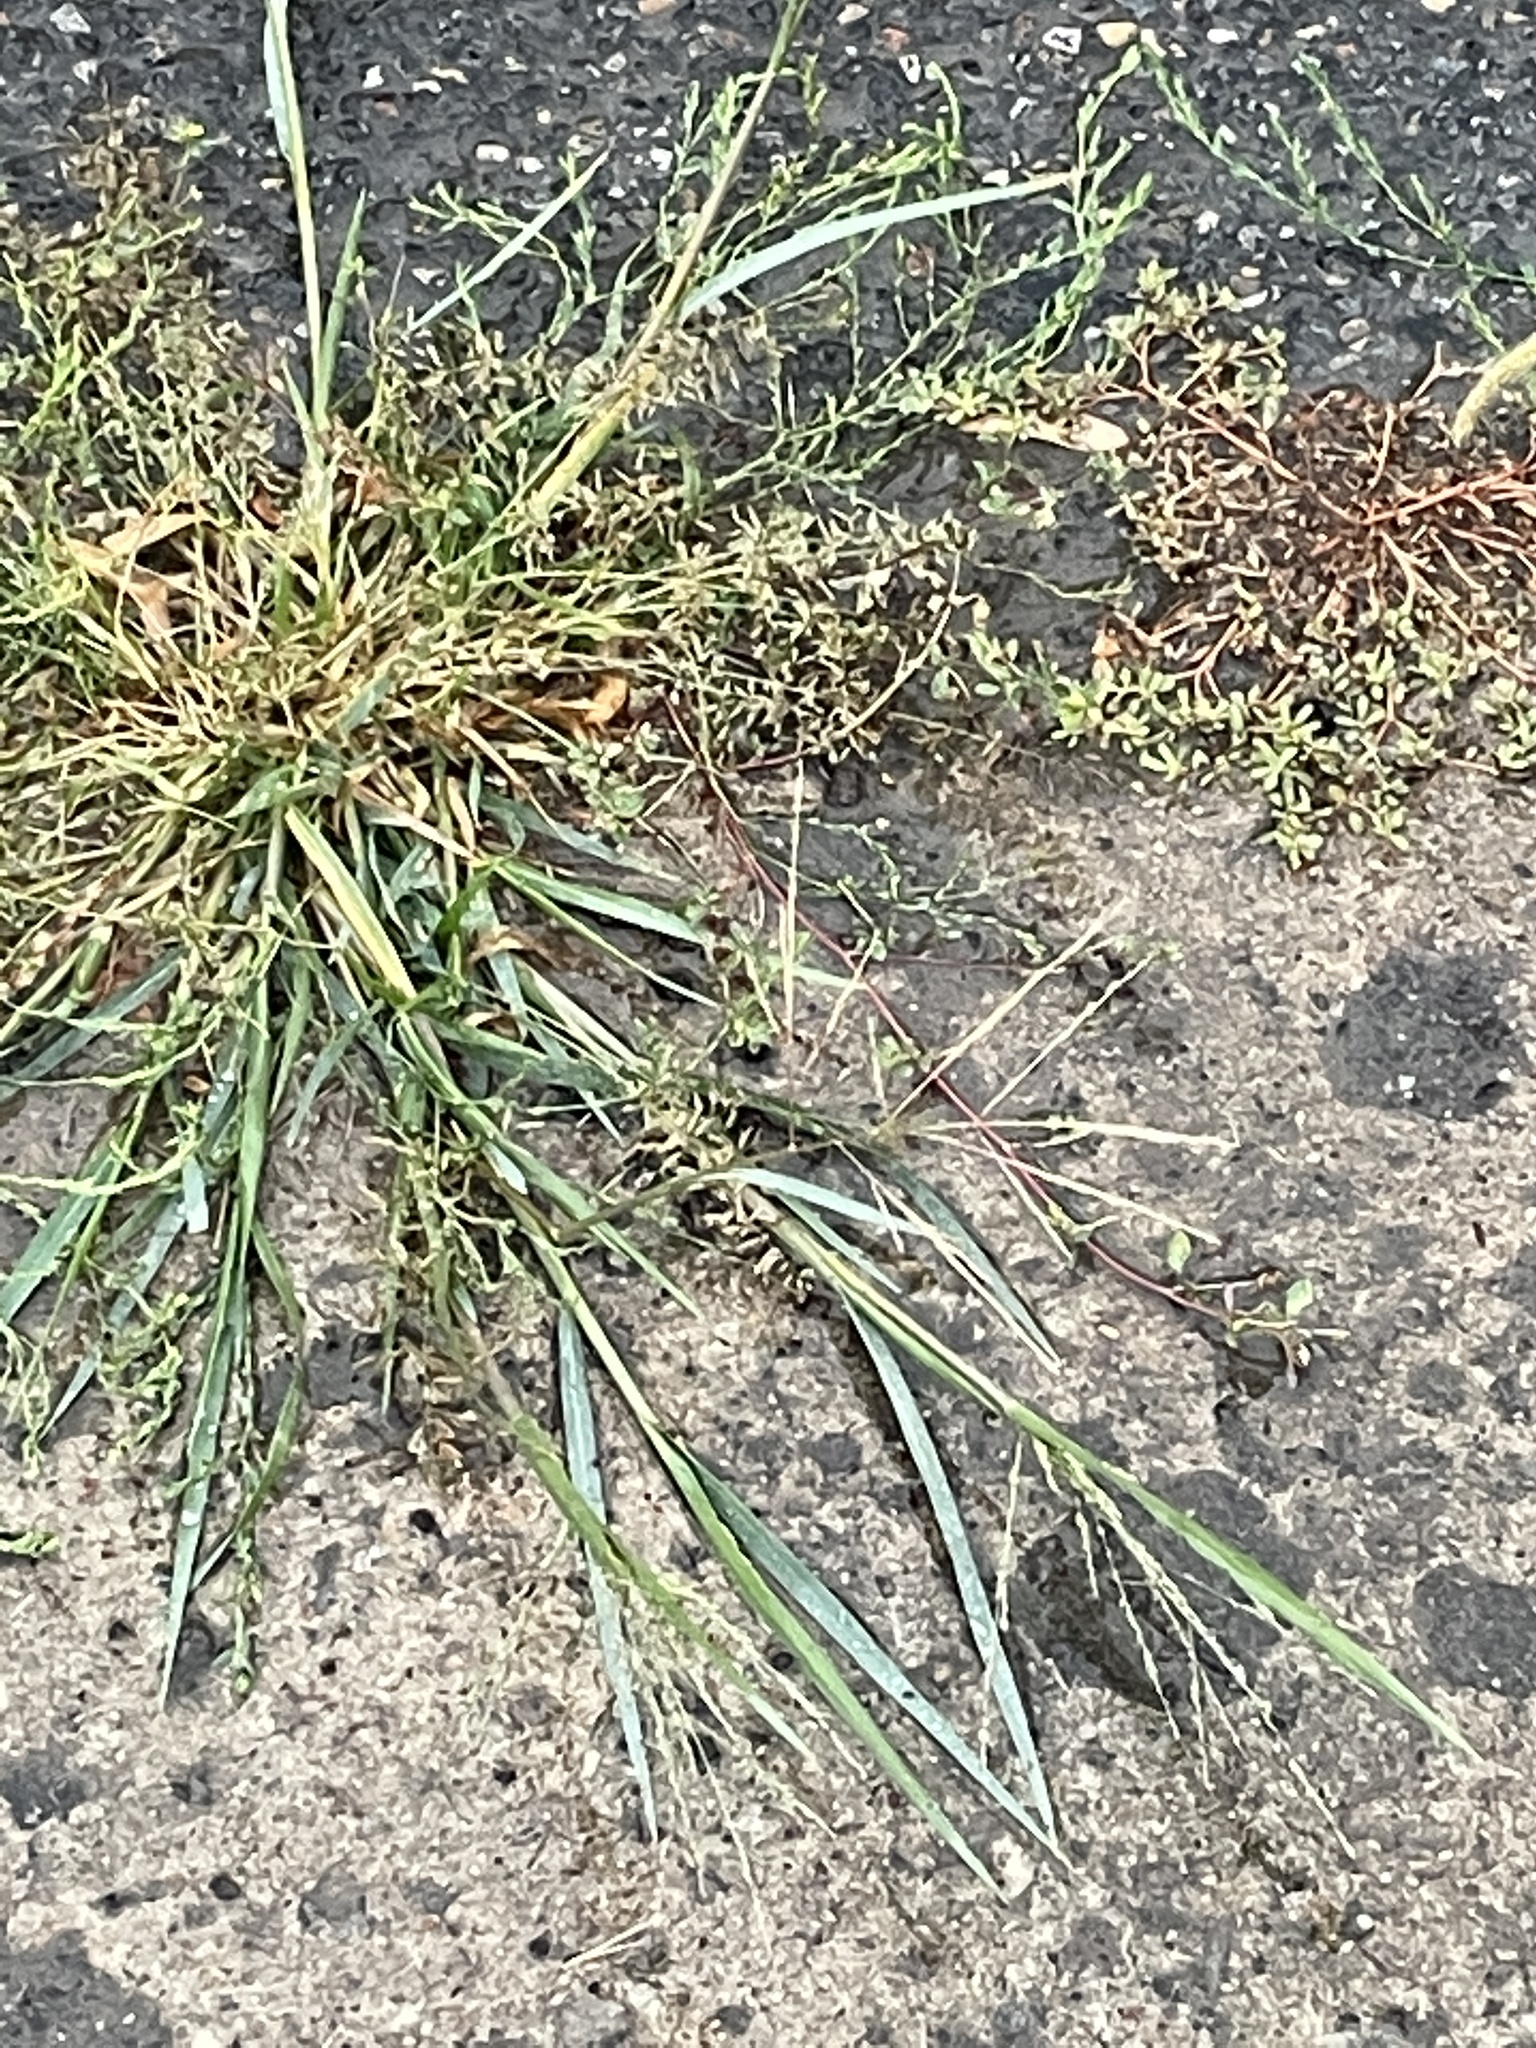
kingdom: Plantae
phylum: Tracheophyta
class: Liliopsida
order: Poales
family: Poaceae
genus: Panicum
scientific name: Panicum dichotomiflorum
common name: Autumn millet
